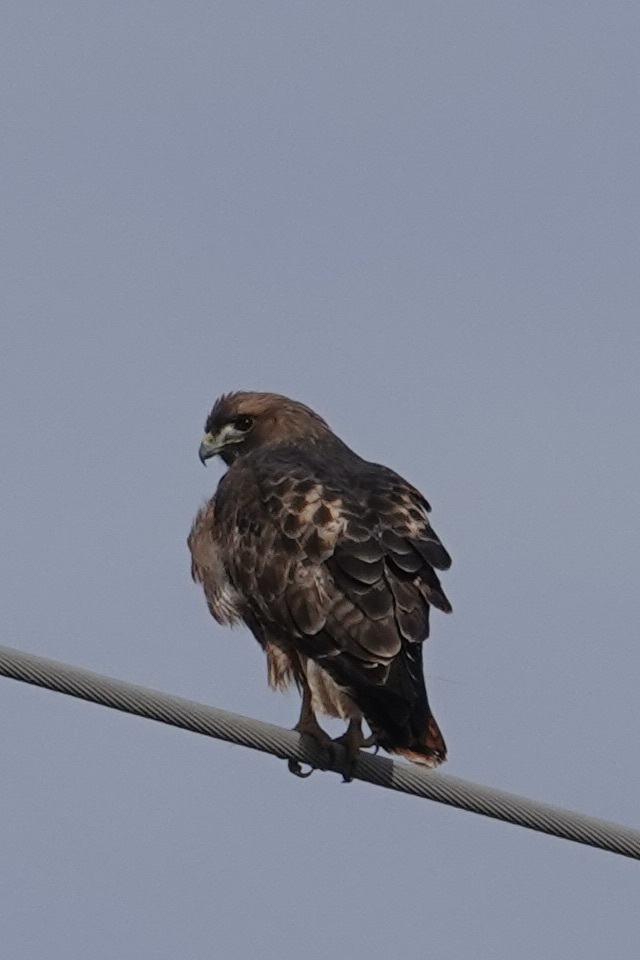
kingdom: Animalia
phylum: Chordata
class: Aves
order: Accipitriformes
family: Accipitridae
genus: Buteo
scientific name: Buteo jamaicensis
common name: Red-tailed hawk
